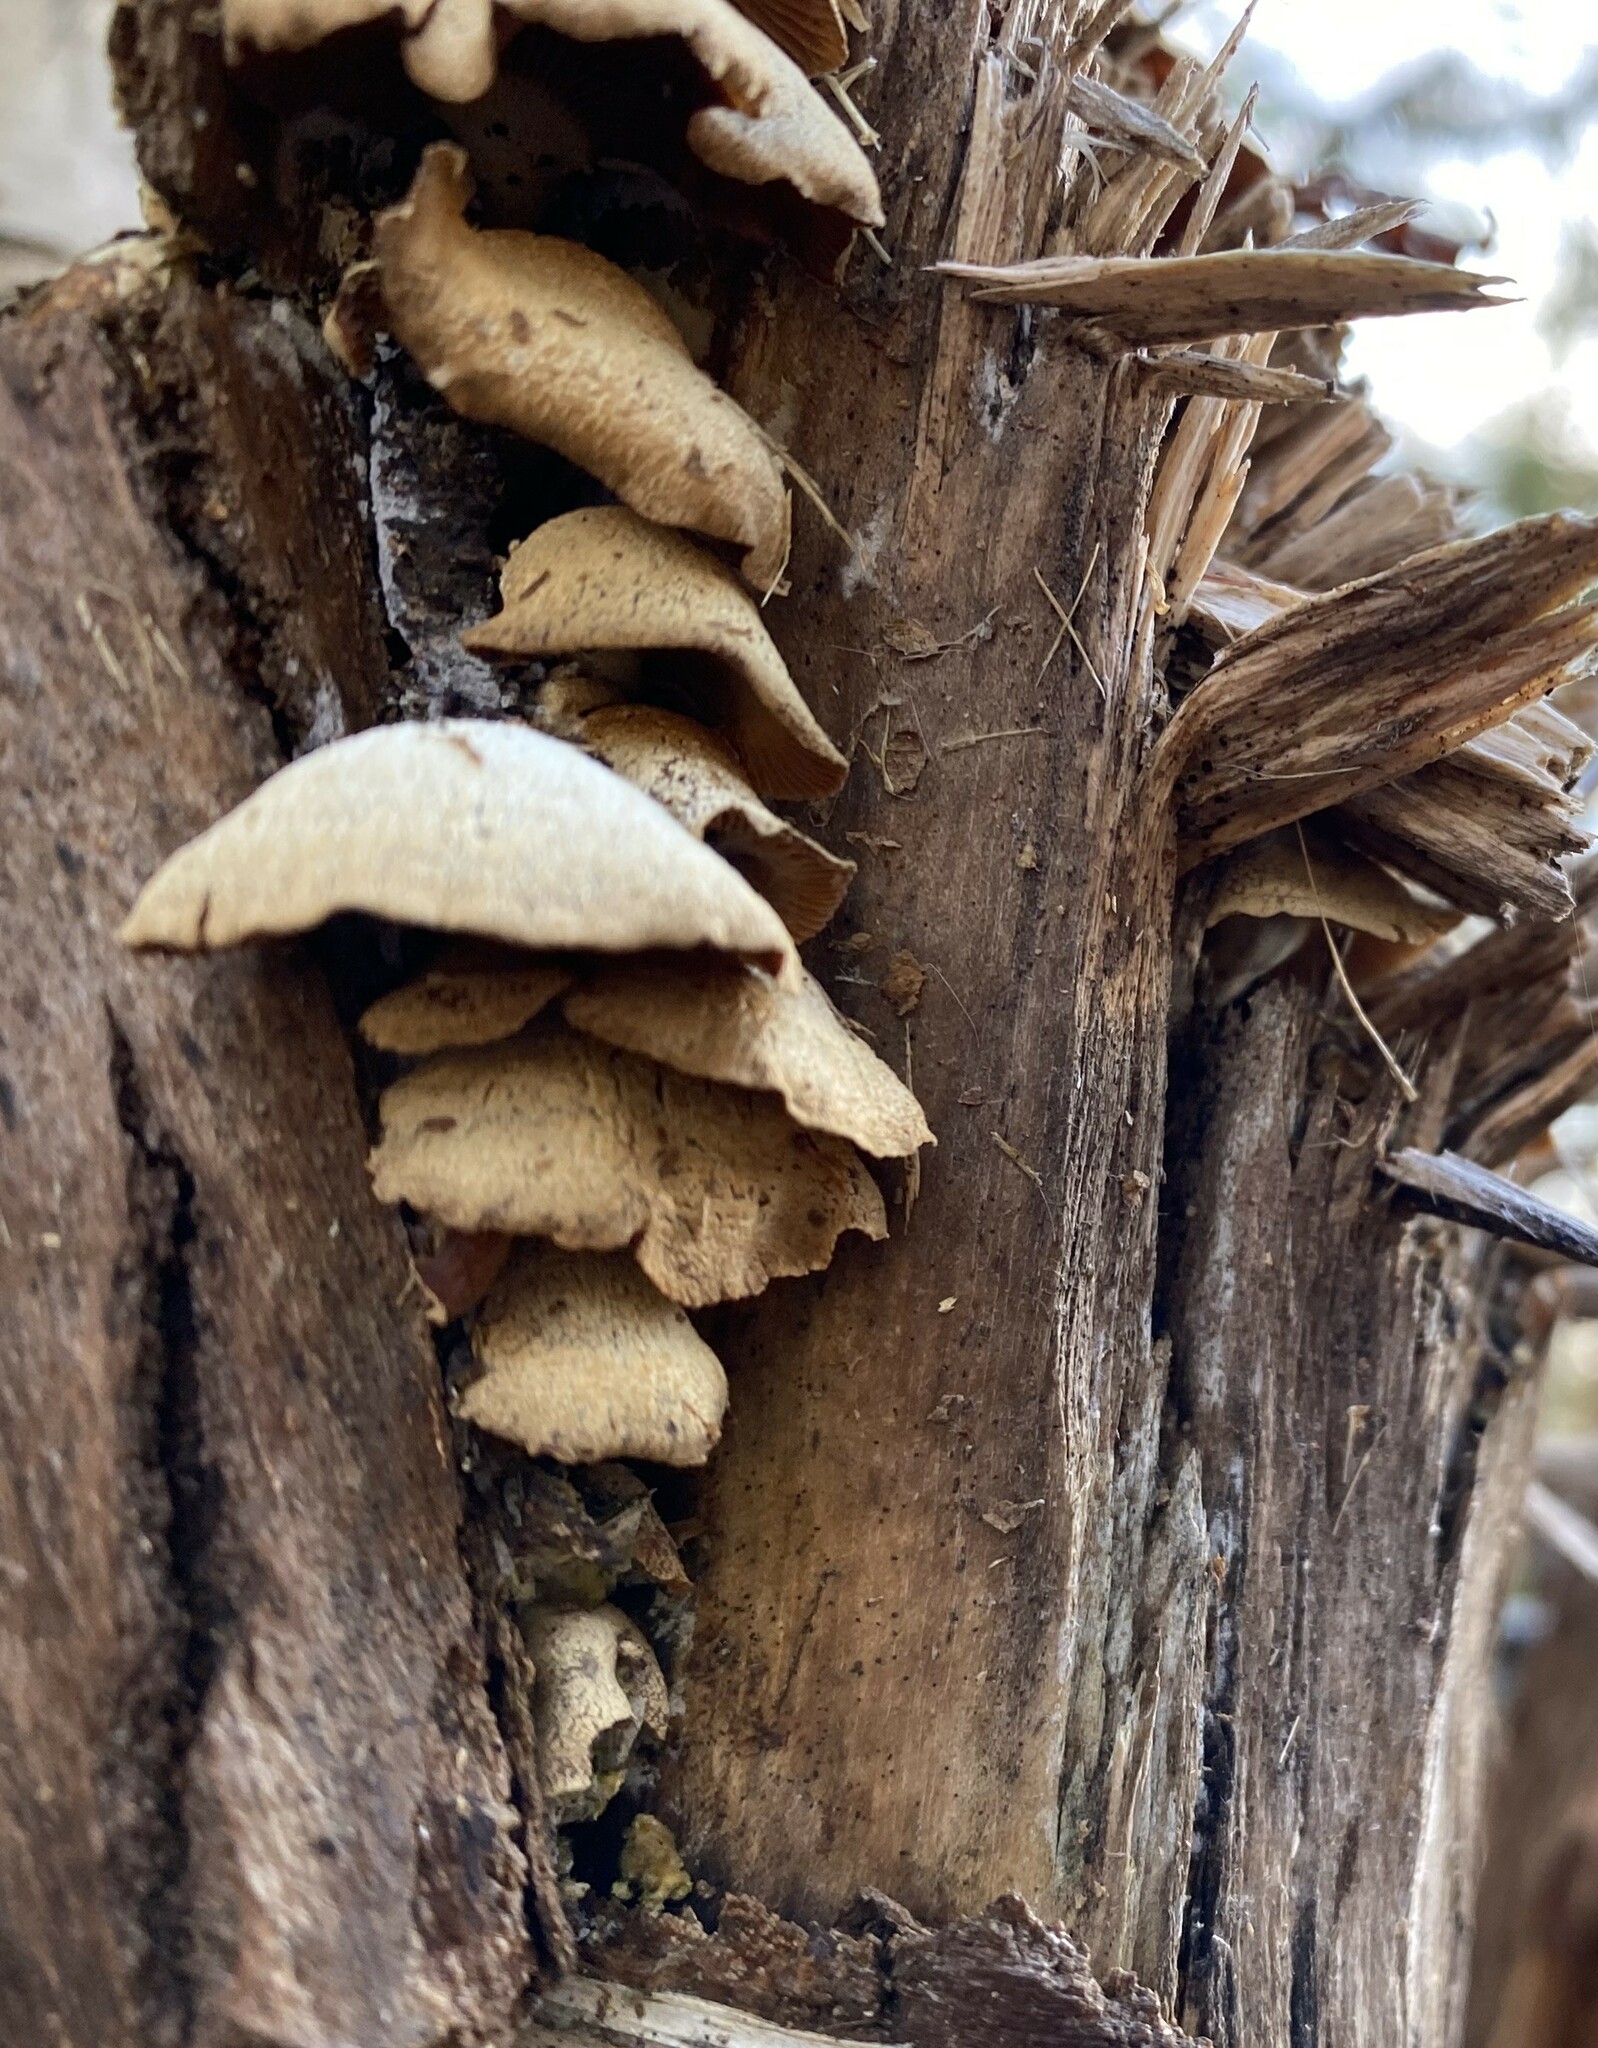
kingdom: Fungi
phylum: Basidiomycota
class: Agaricomycetes
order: Agaricales
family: Mycenaceae
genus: Panellus
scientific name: Panellus stipticus
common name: Bitter oysterling
